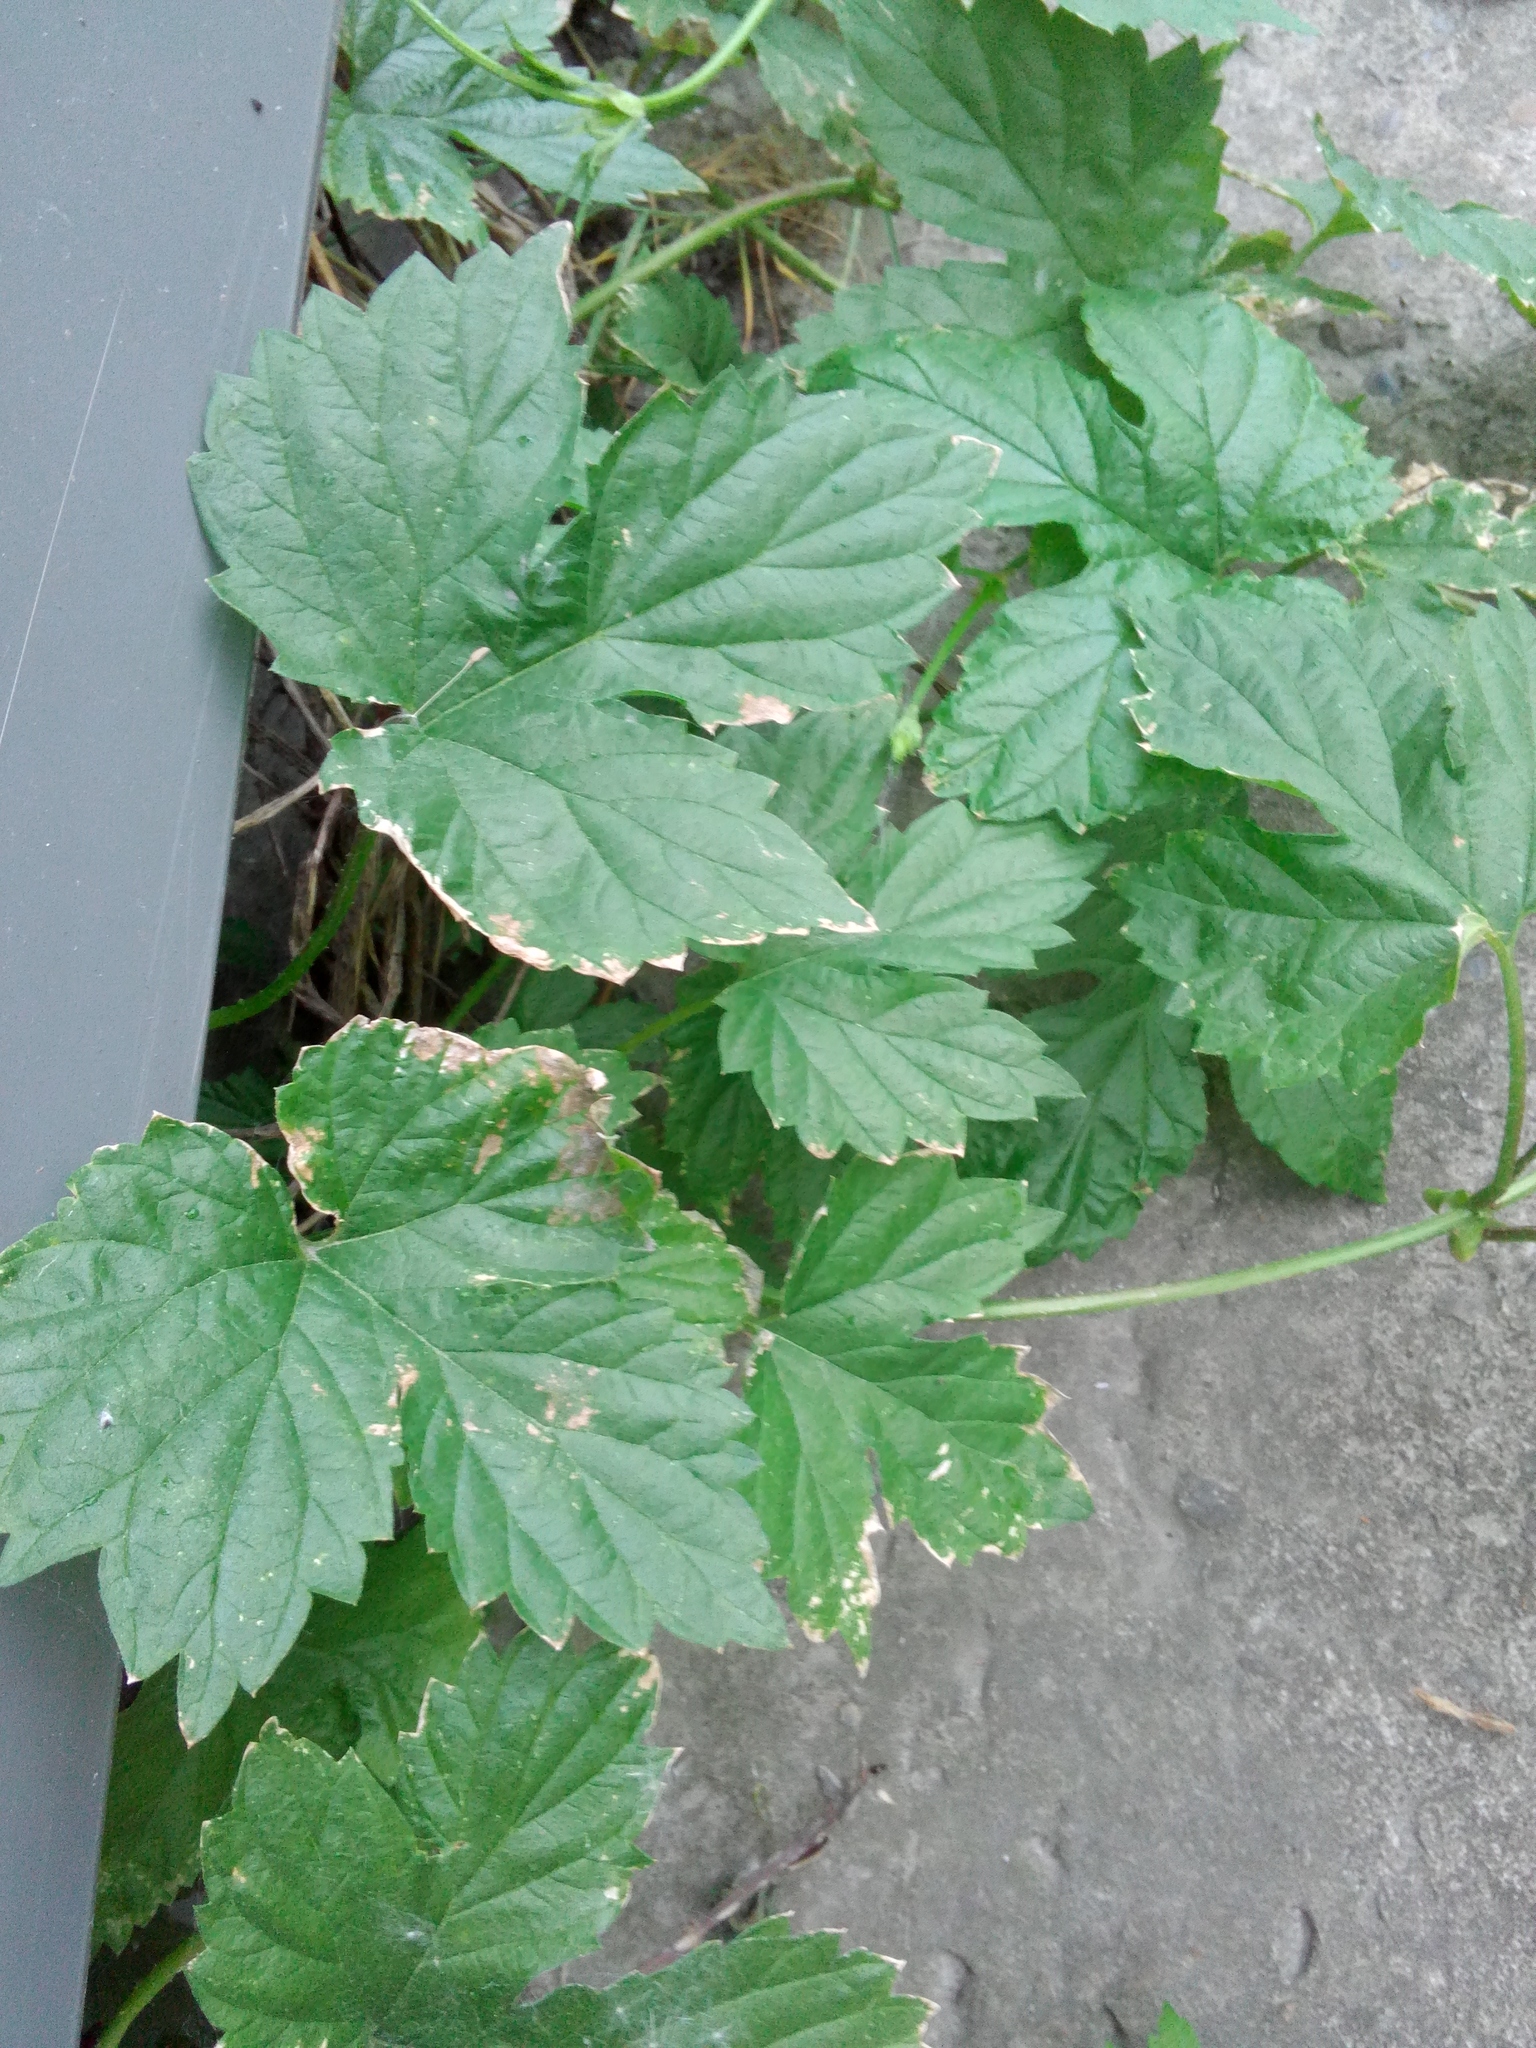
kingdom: Plantae
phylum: Tracheophyta
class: Magnoliopsida
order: Rosales
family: Cannabaceae
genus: Humulus
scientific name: Humulus lupulus
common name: Hop
